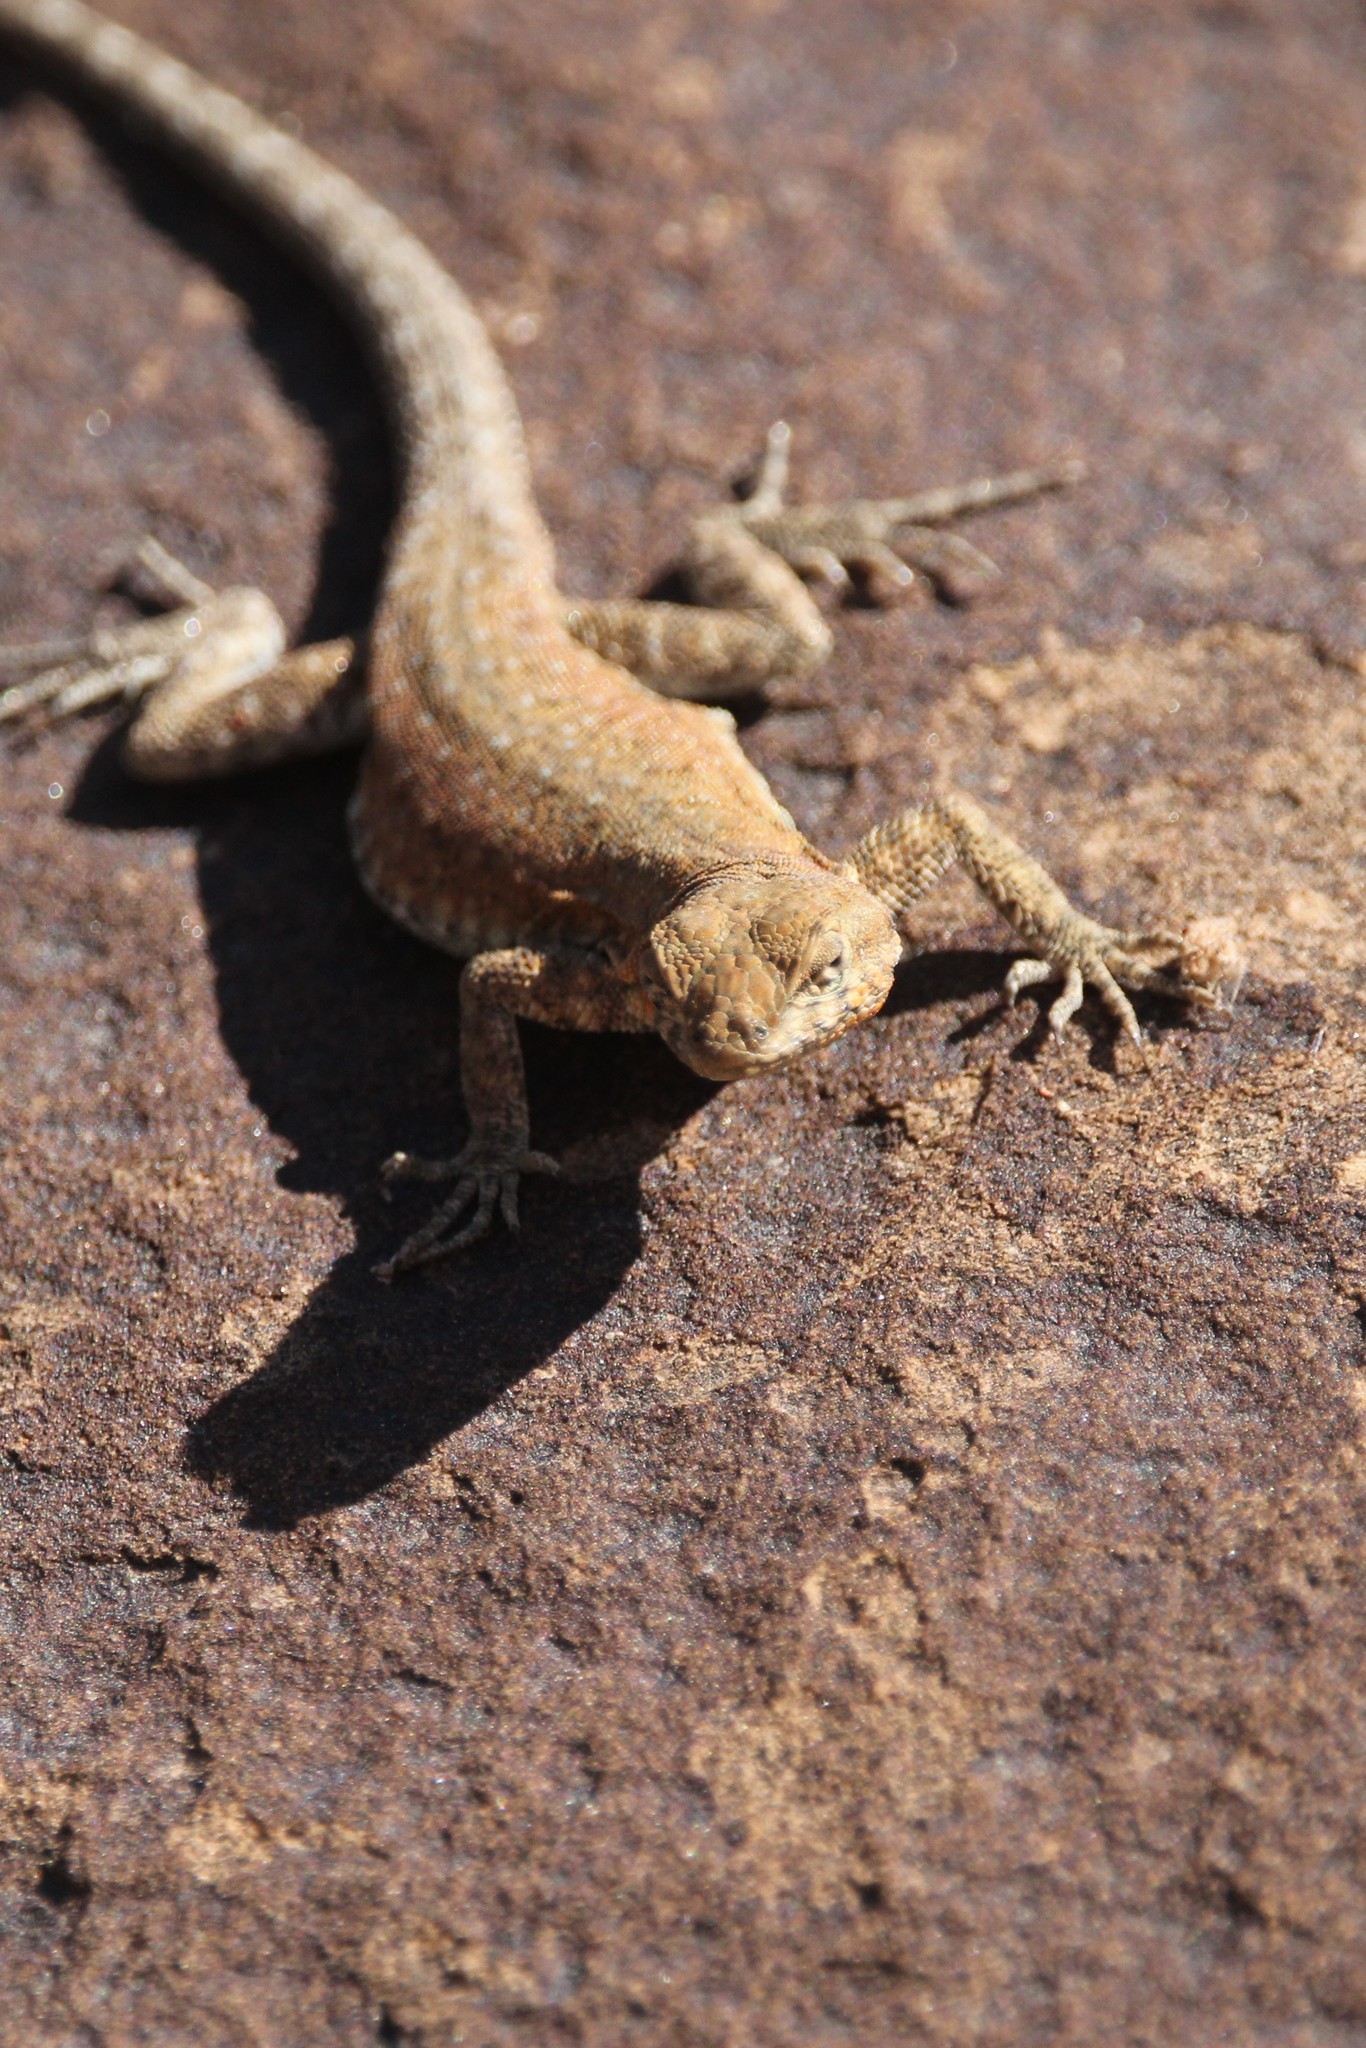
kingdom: Animalia
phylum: Chordata
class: Squamata
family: Phrynosomatidae
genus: Uta
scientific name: Uta stansburiana
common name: Side-blotched lizard
